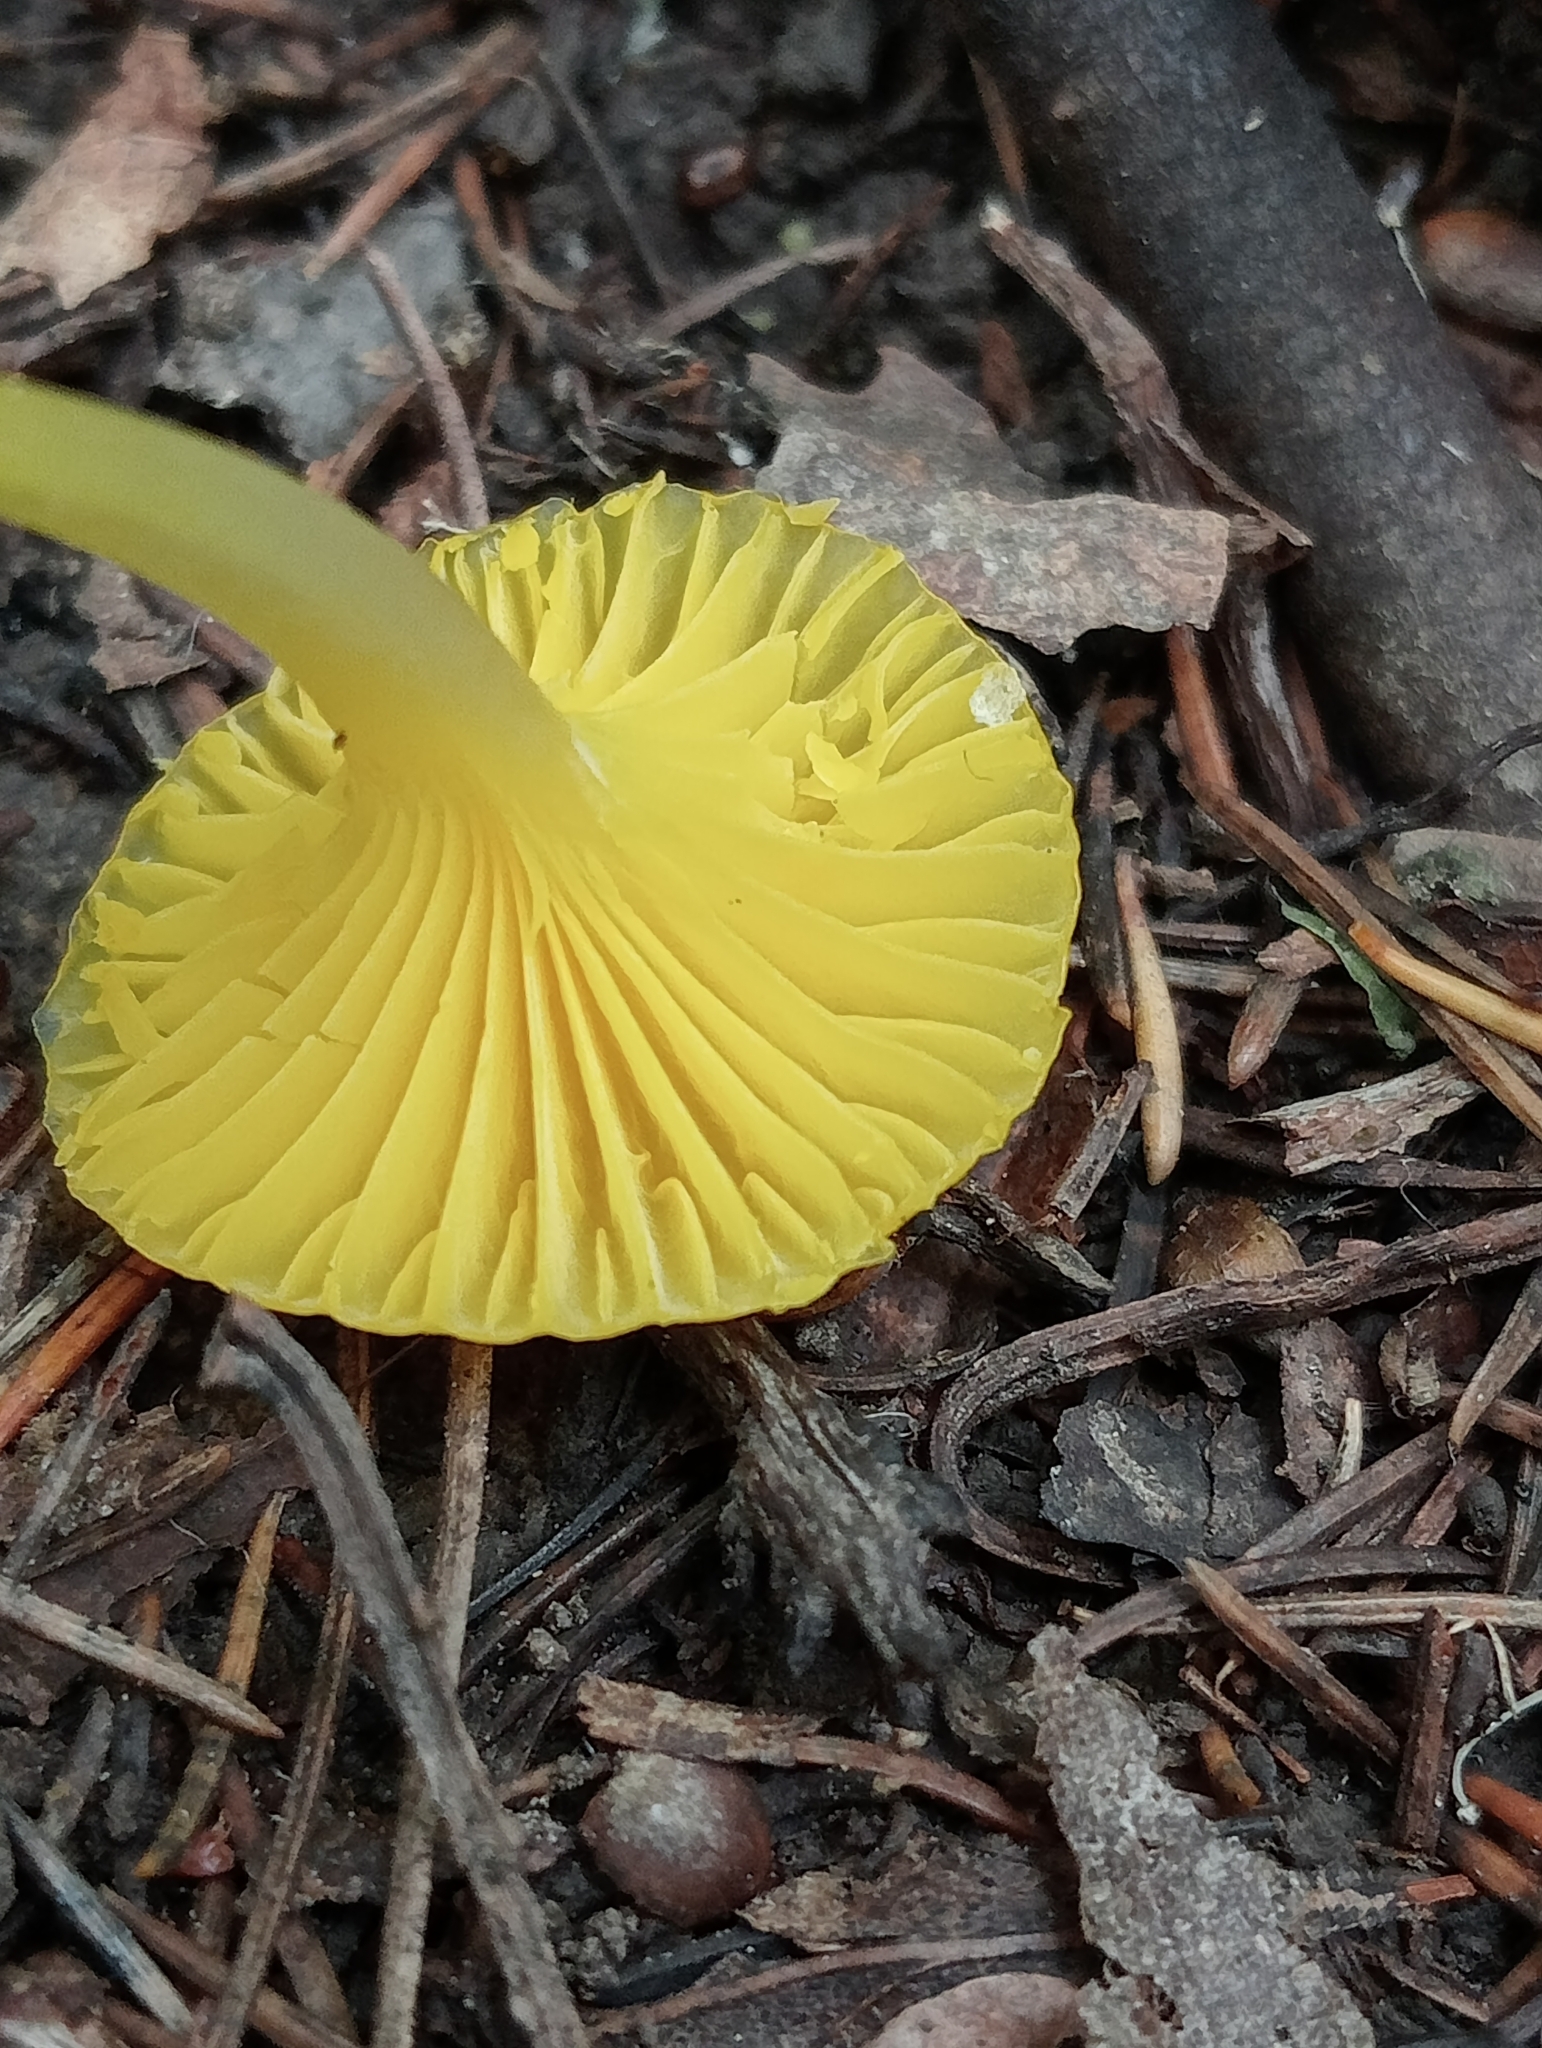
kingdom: Fungi
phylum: Basidiomycota
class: Agaricomycetes
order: Agaricales
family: Hygrophoraceae
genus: Gloioxanthomyces
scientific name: Gloioxanthomyces
